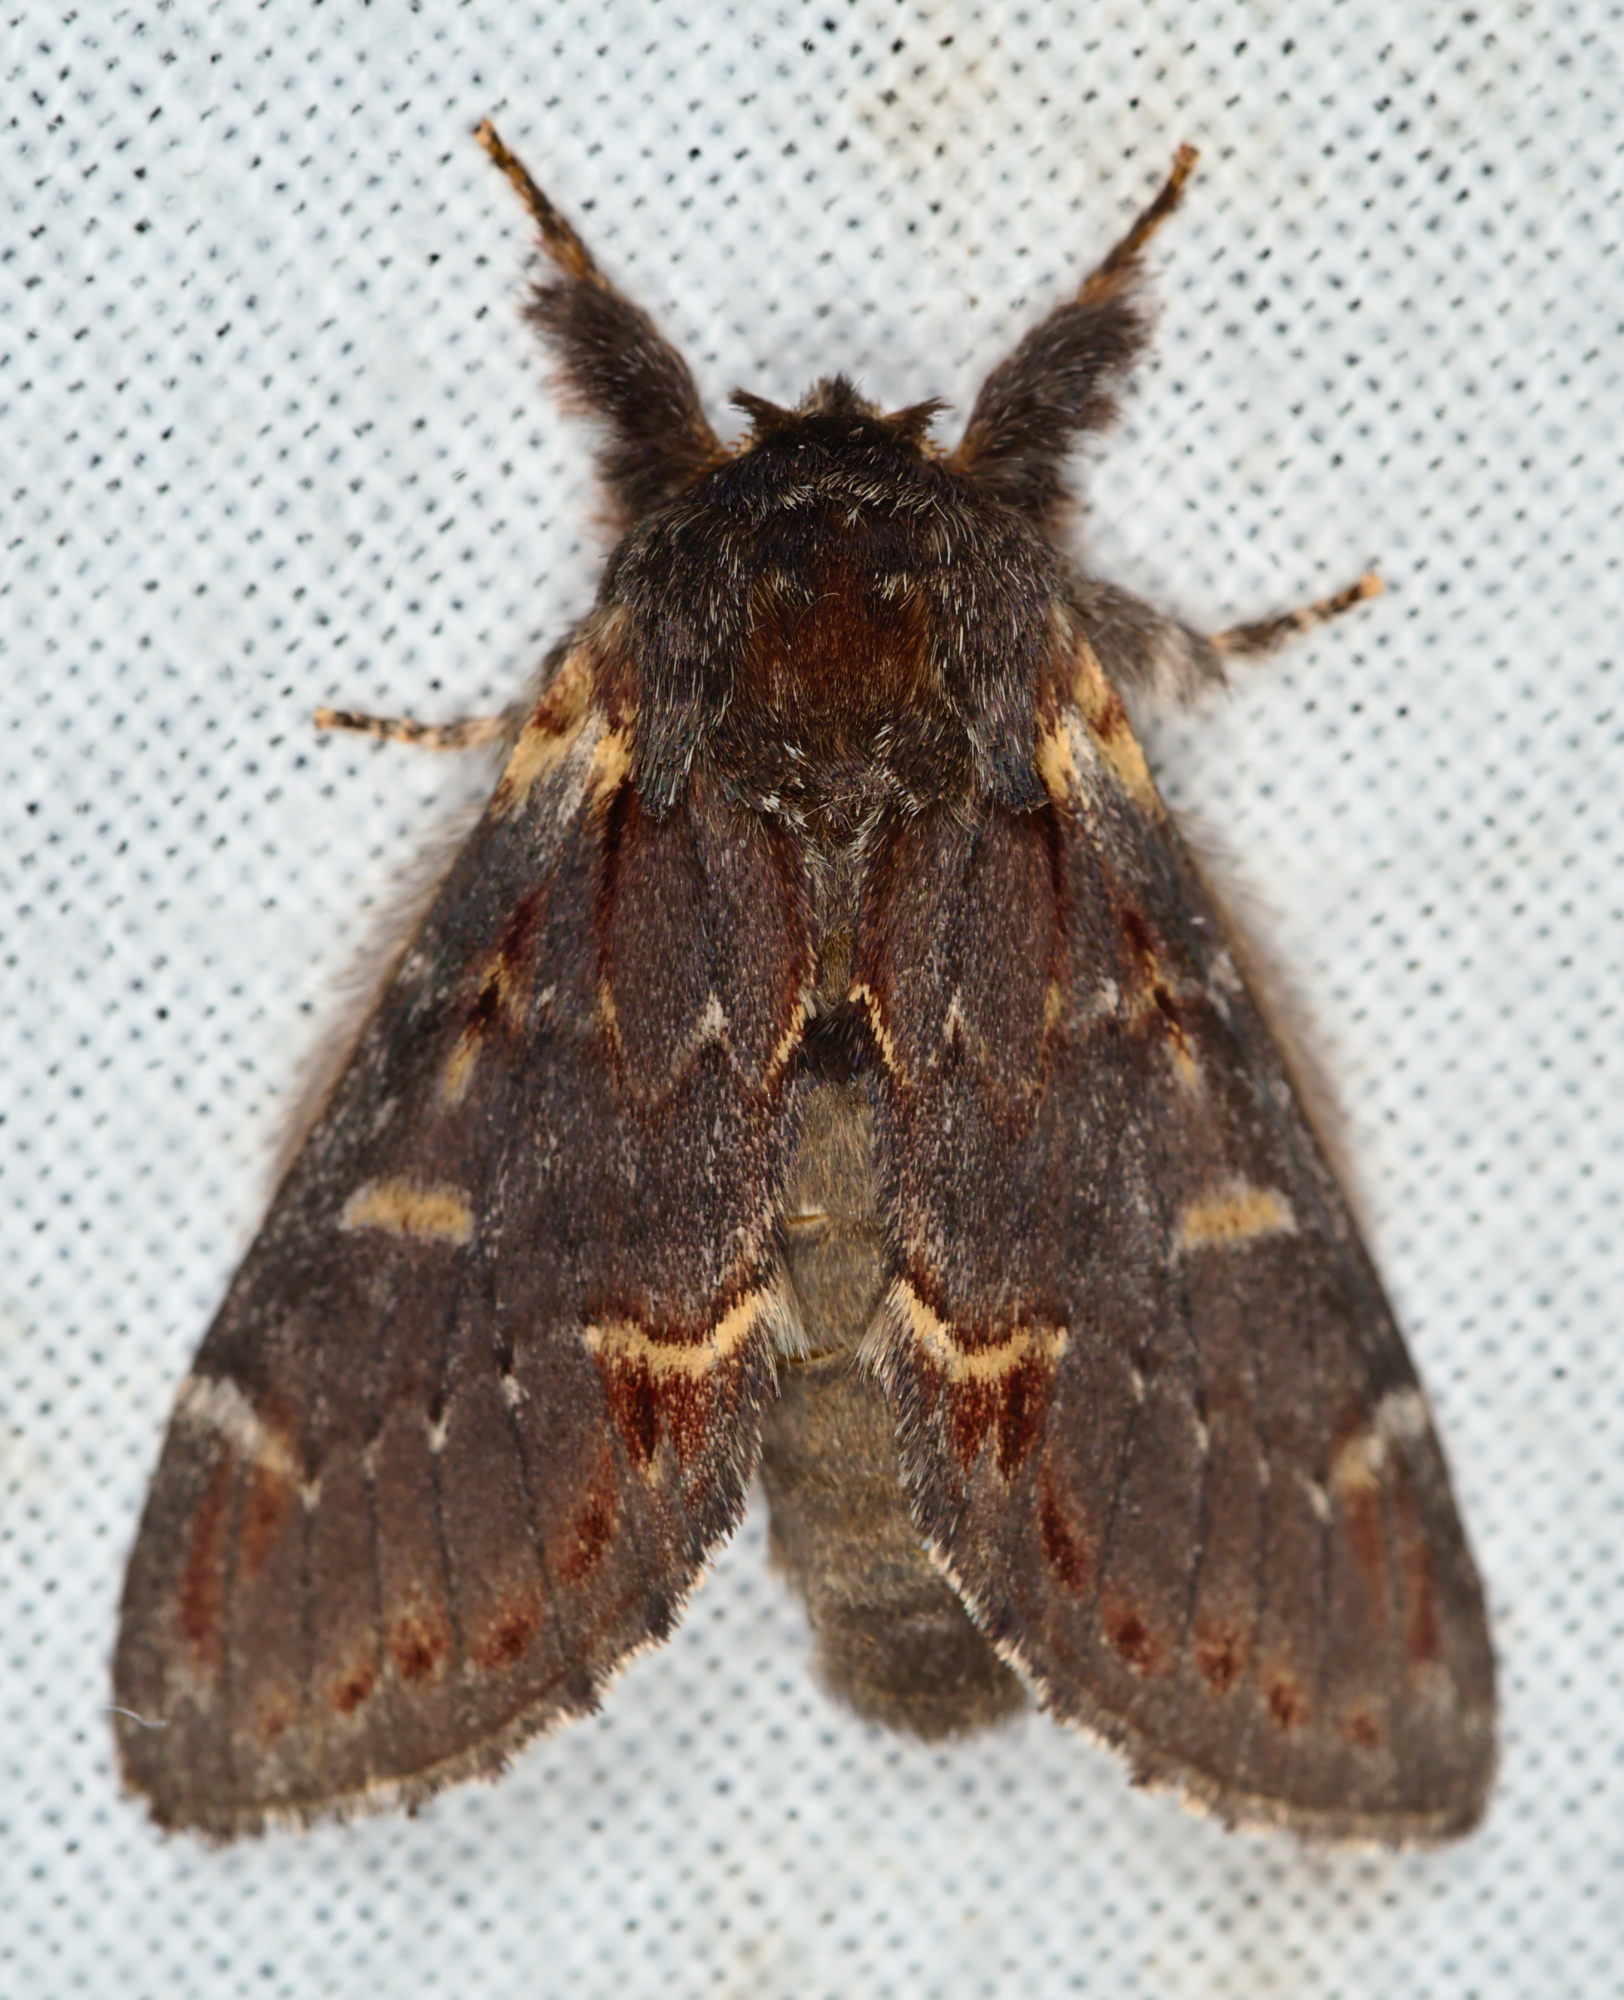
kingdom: Animalia
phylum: Arthropoda
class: Insecta
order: Lepidoptera
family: Notodontidae
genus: Notodonta
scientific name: Notodonta dromedarius
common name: Iron prominent
